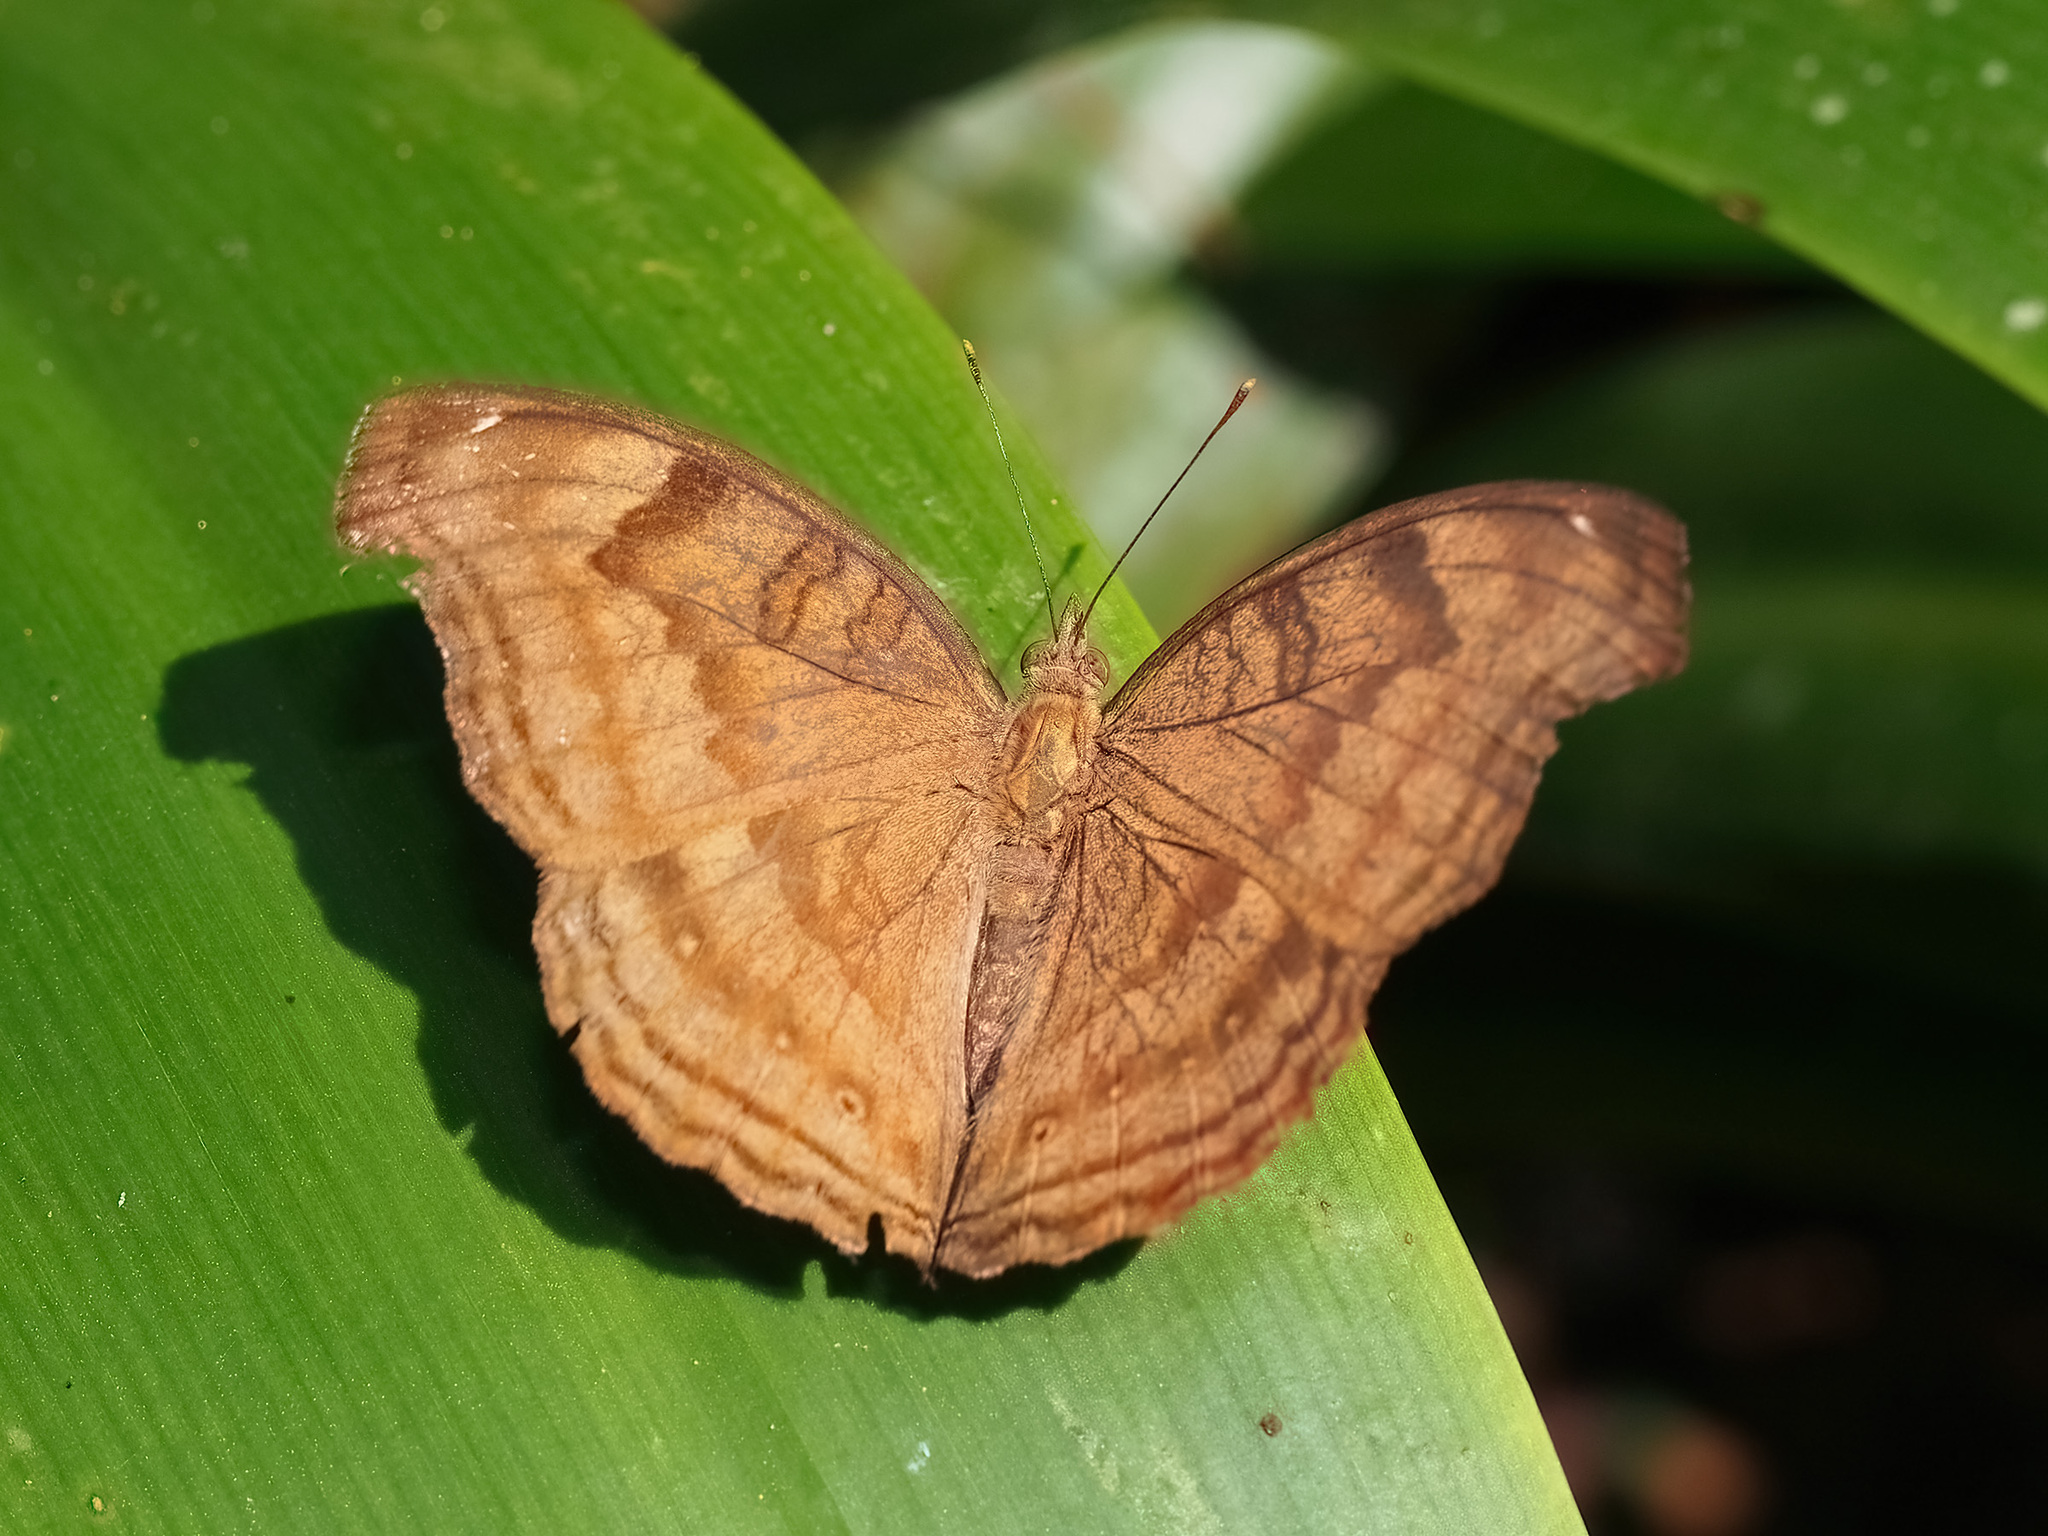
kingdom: Animalia
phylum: Arthropoda
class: Insecta
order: Lepidoptera
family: Nymphalidae
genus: Junonia
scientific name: Junonia iphita
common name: Chocolate pansy
